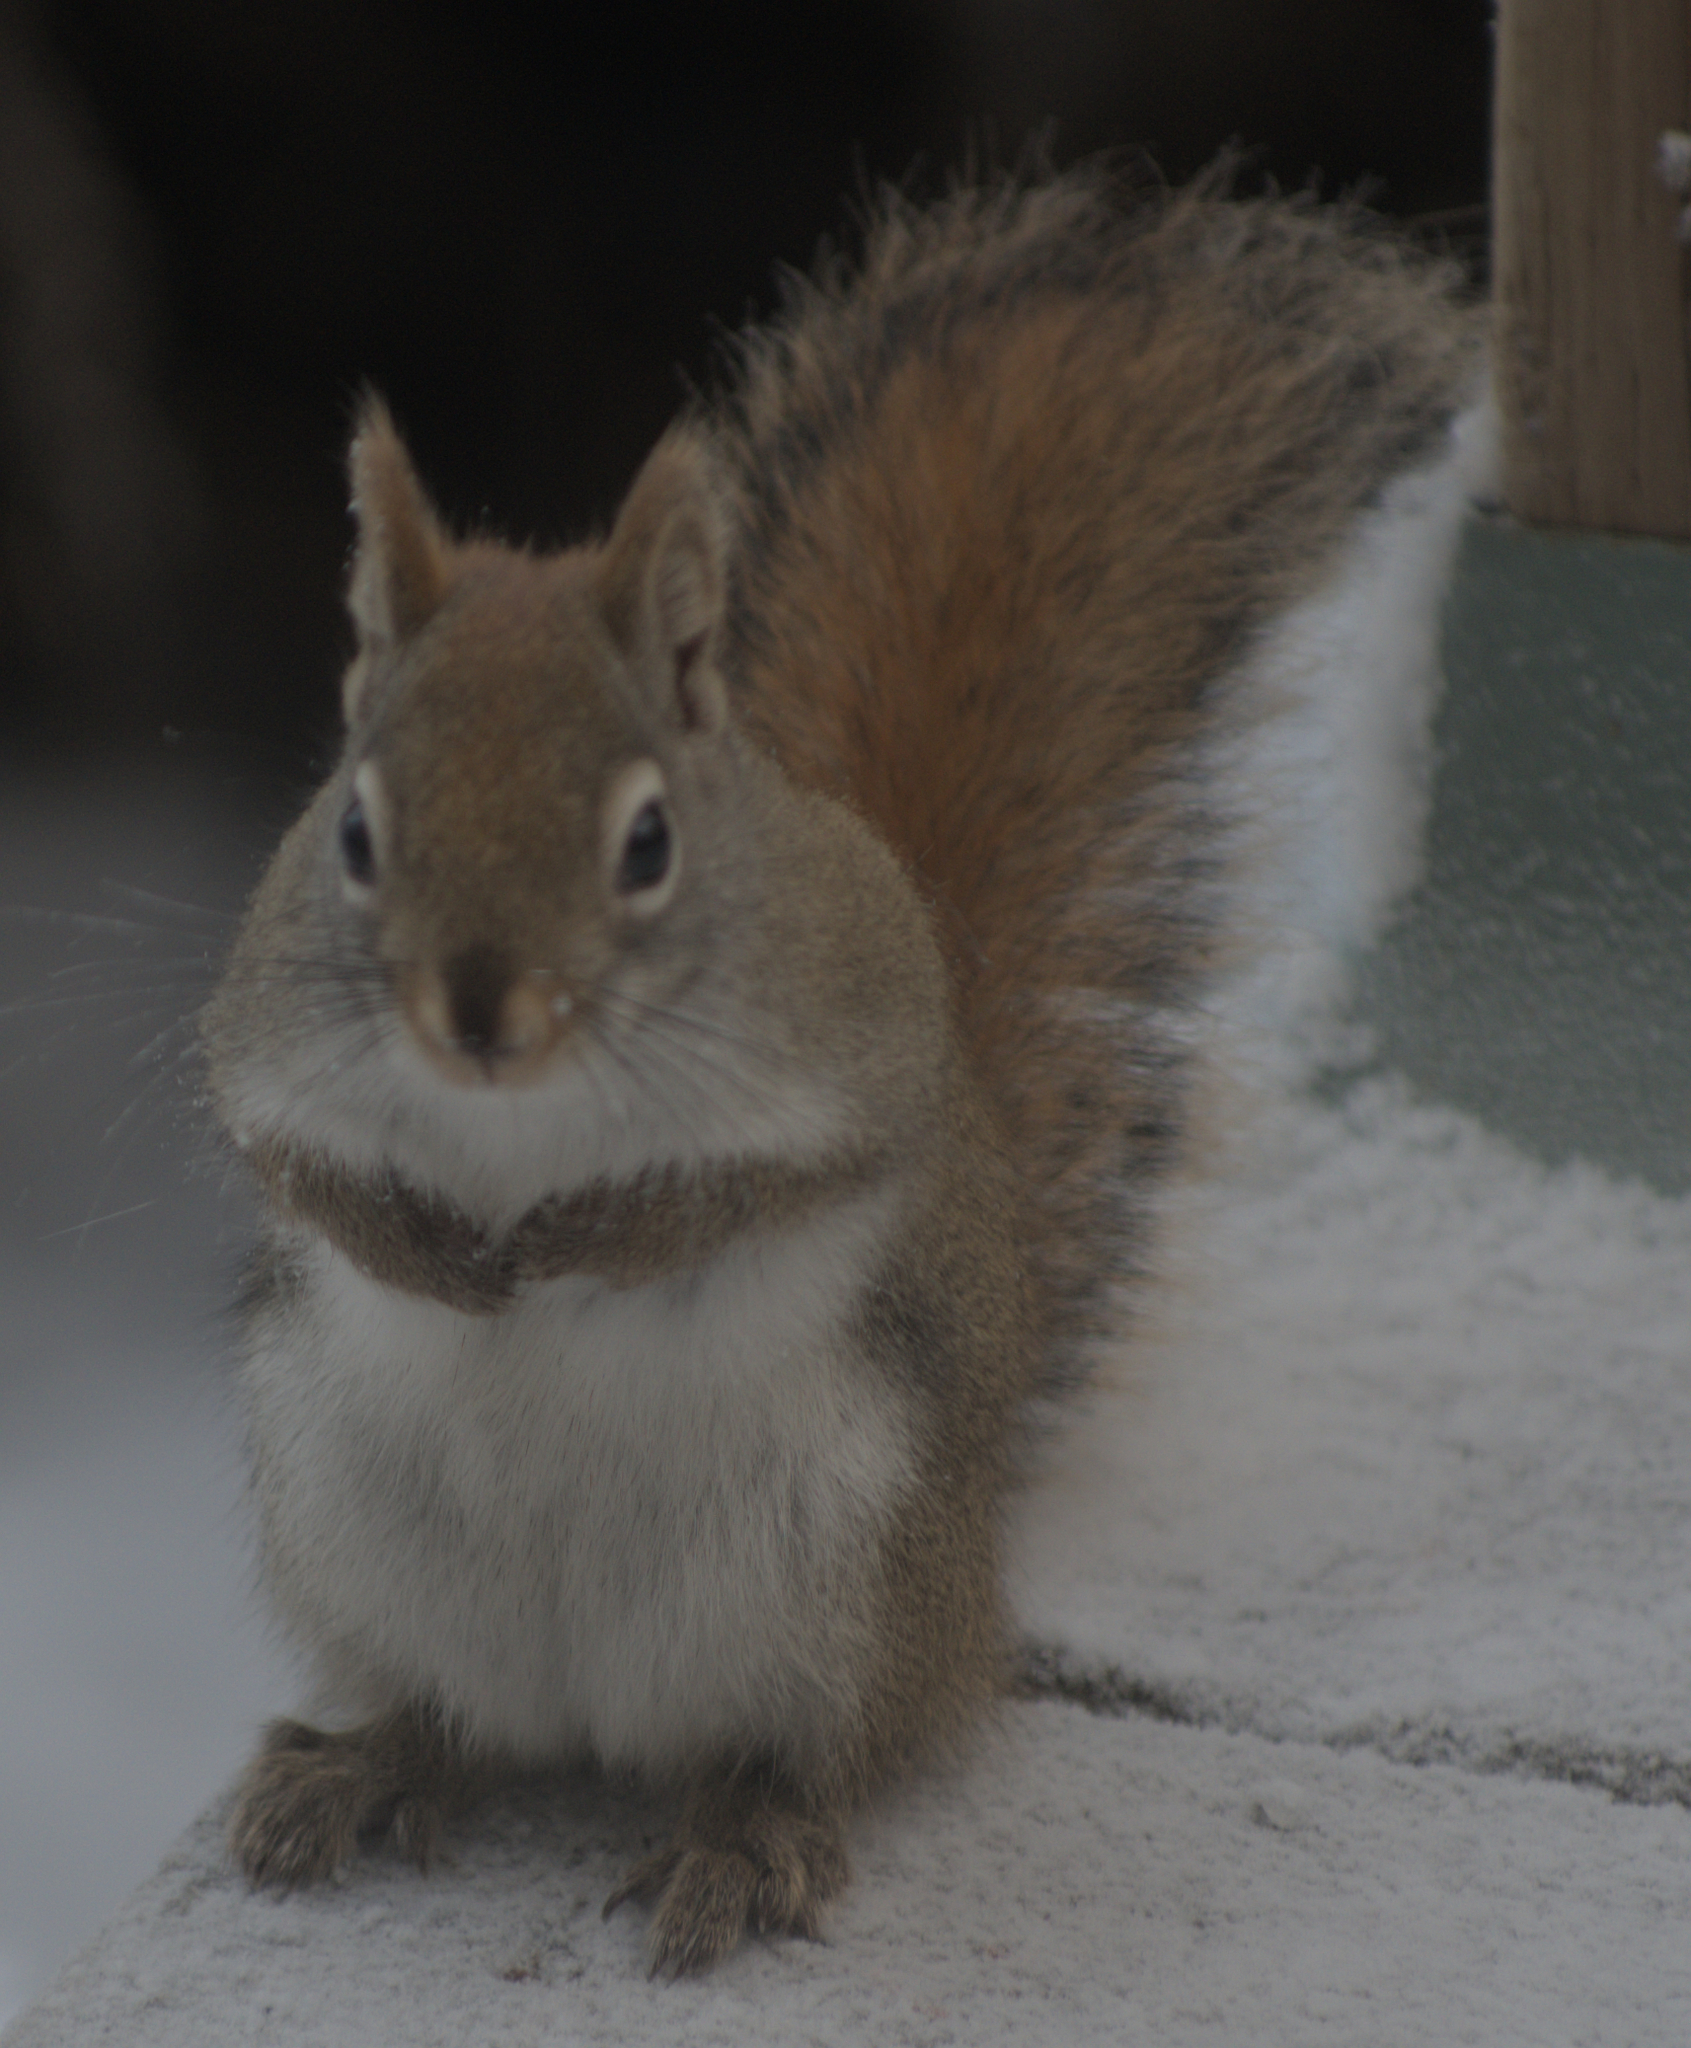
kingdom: Animalia
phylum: Chordata
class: Mammalia
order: Rodentia
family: Sciuridae
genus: Tamiasciurus
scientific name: Tamiasciurus hudsonicus
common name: Red squirrel
